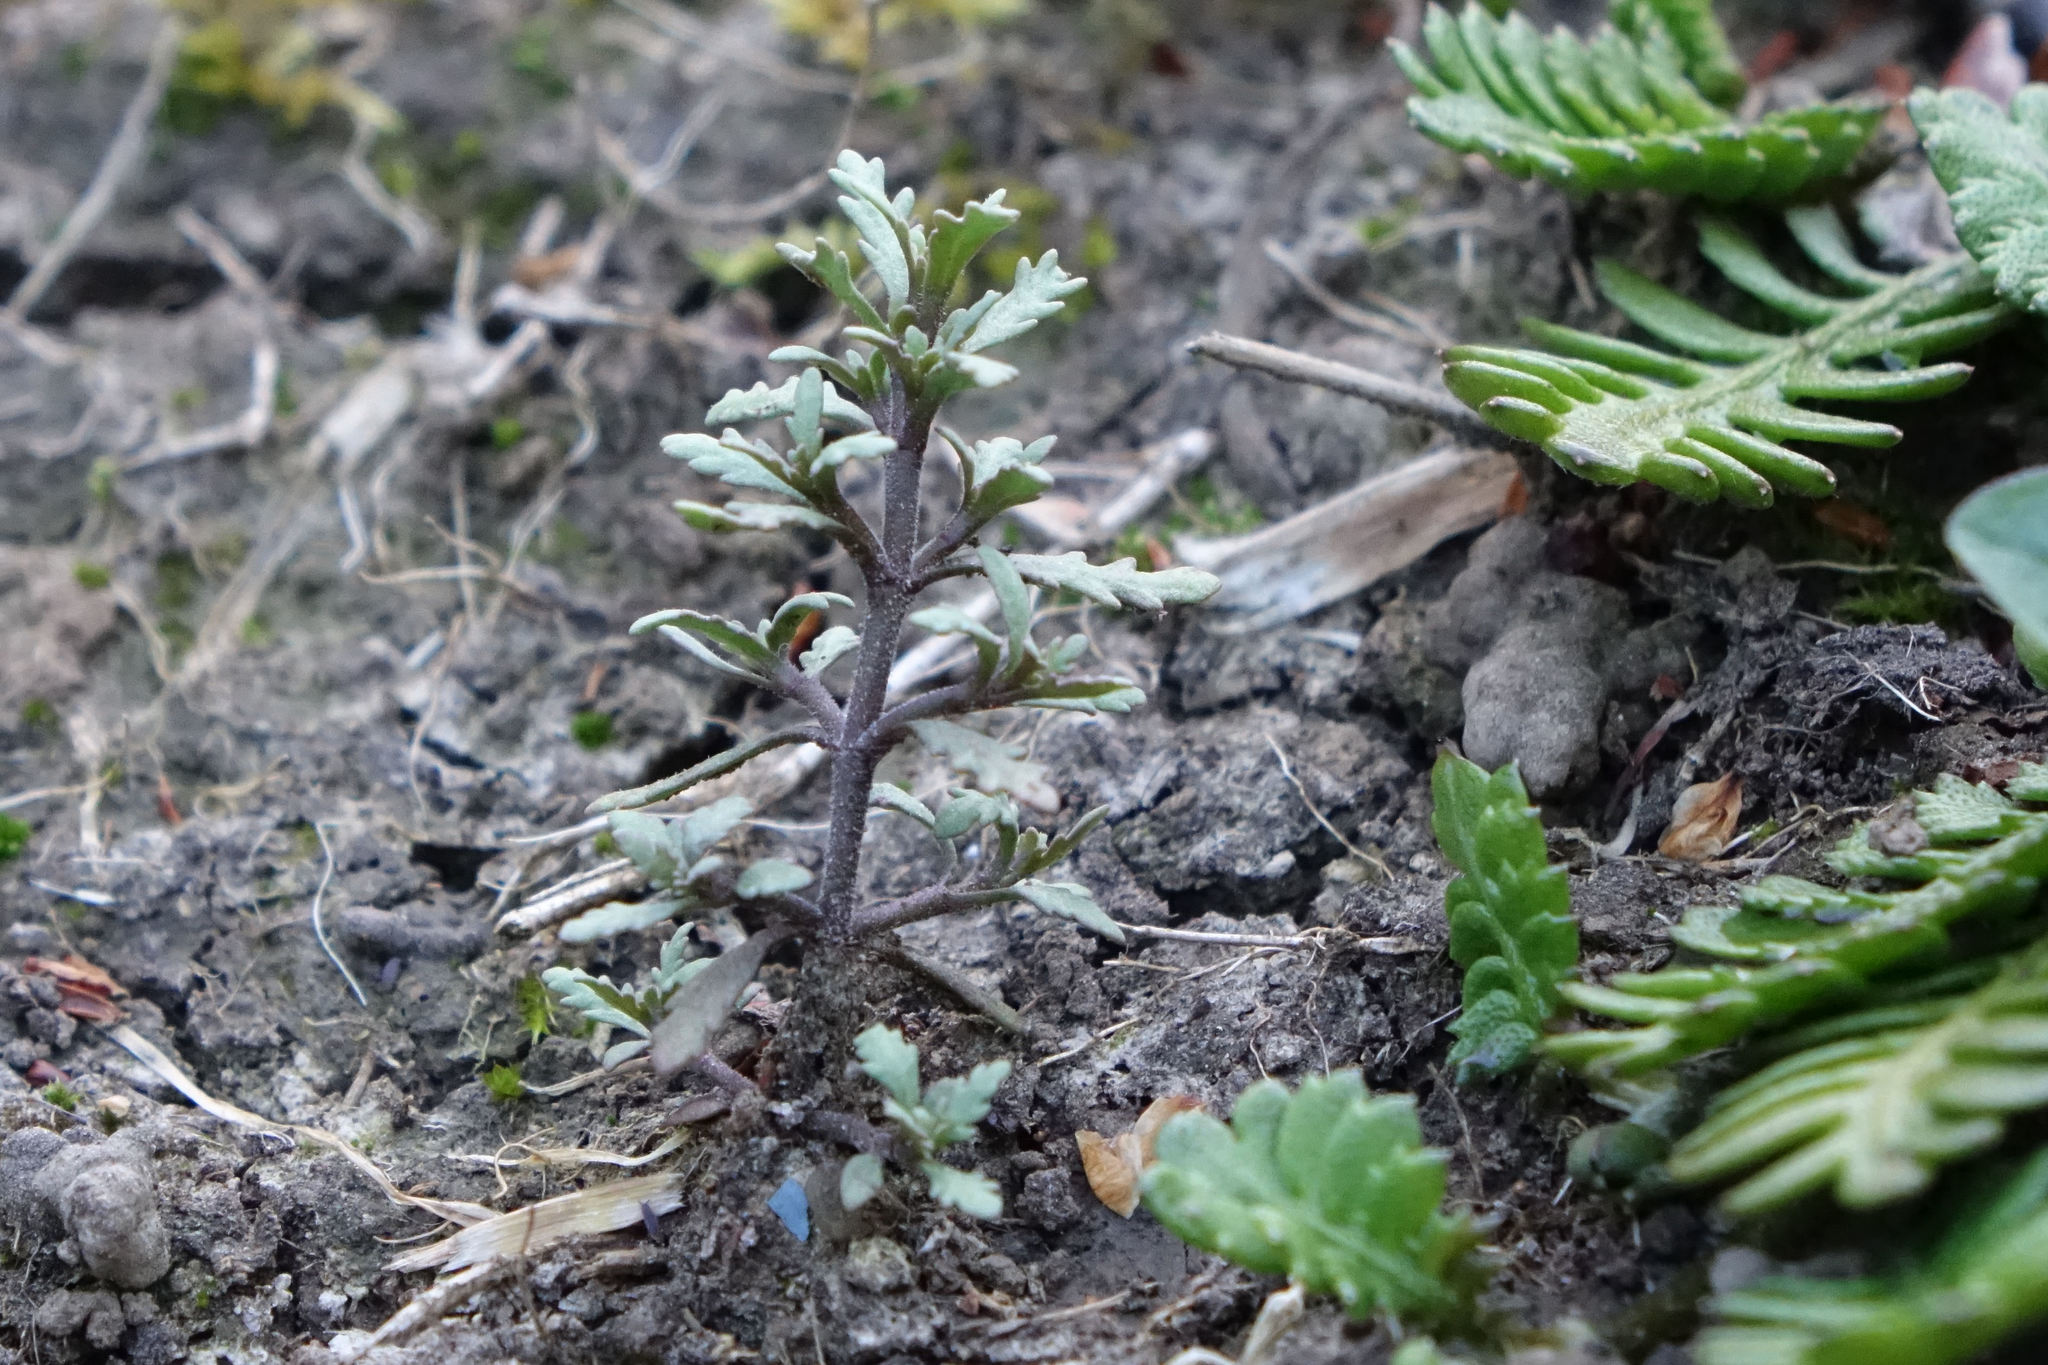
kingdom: Plantae
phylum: Tracheophyta
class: Magnoliopsida
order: Lamiales
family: Plantaginaceae
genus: Veronica
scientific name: Veronica cupressoides
